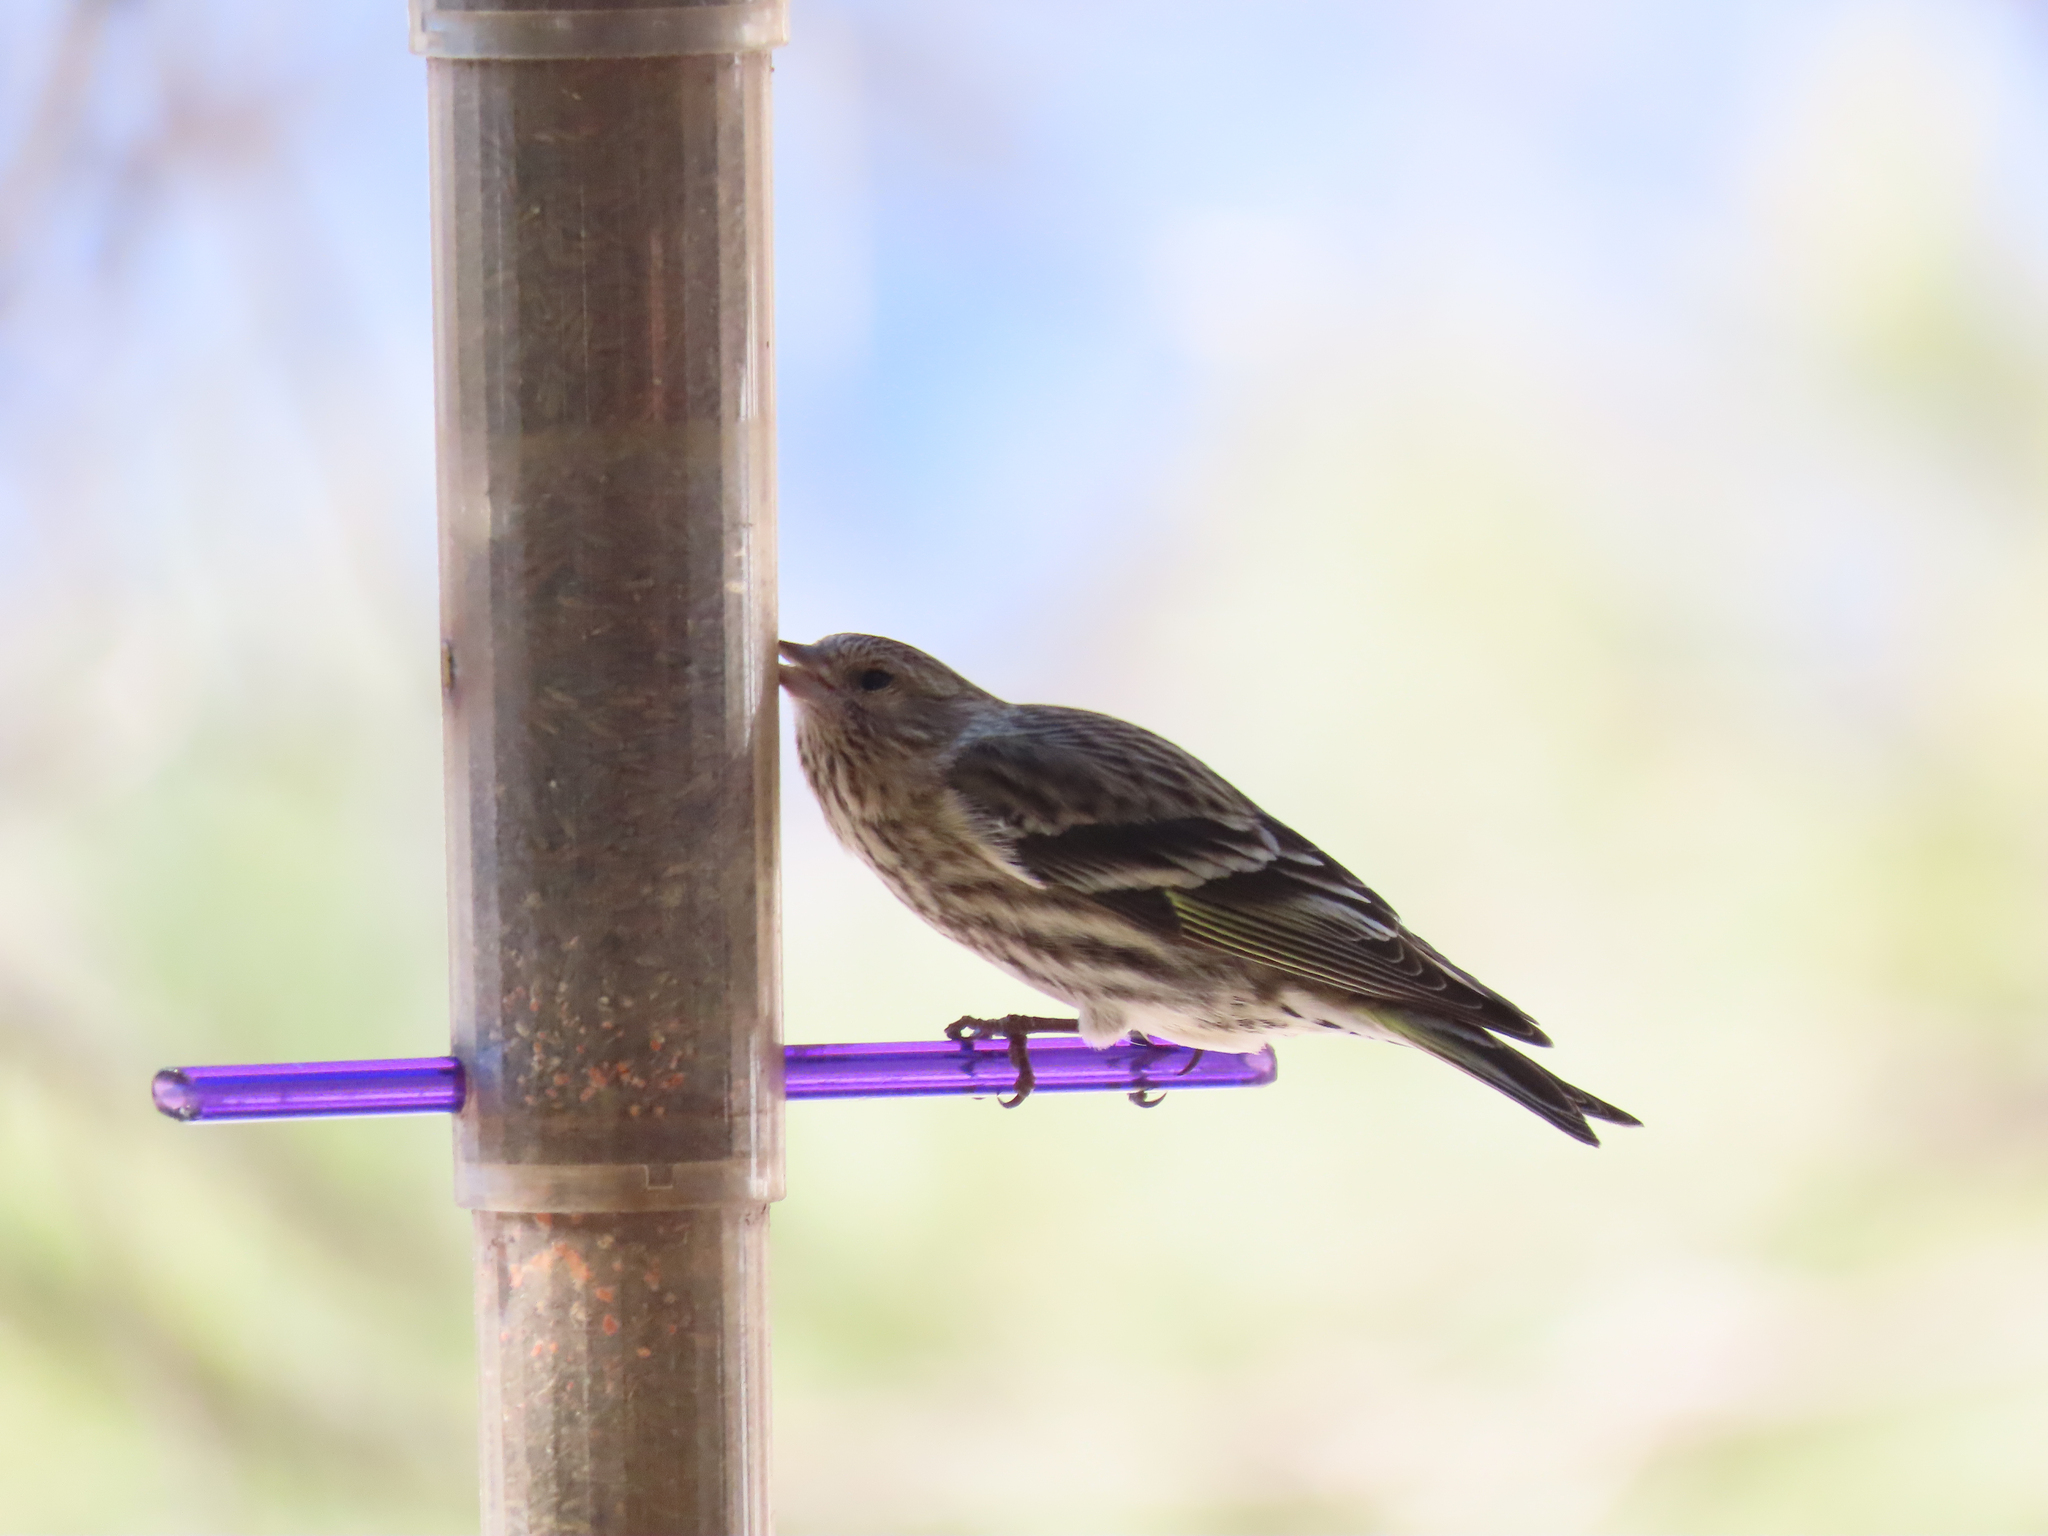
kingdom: Animalia
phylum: Chordata
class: Aves
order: Passeriformes
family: Fringillidae
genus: Spinus
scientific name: Spinus pinus
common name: Pine siskin
